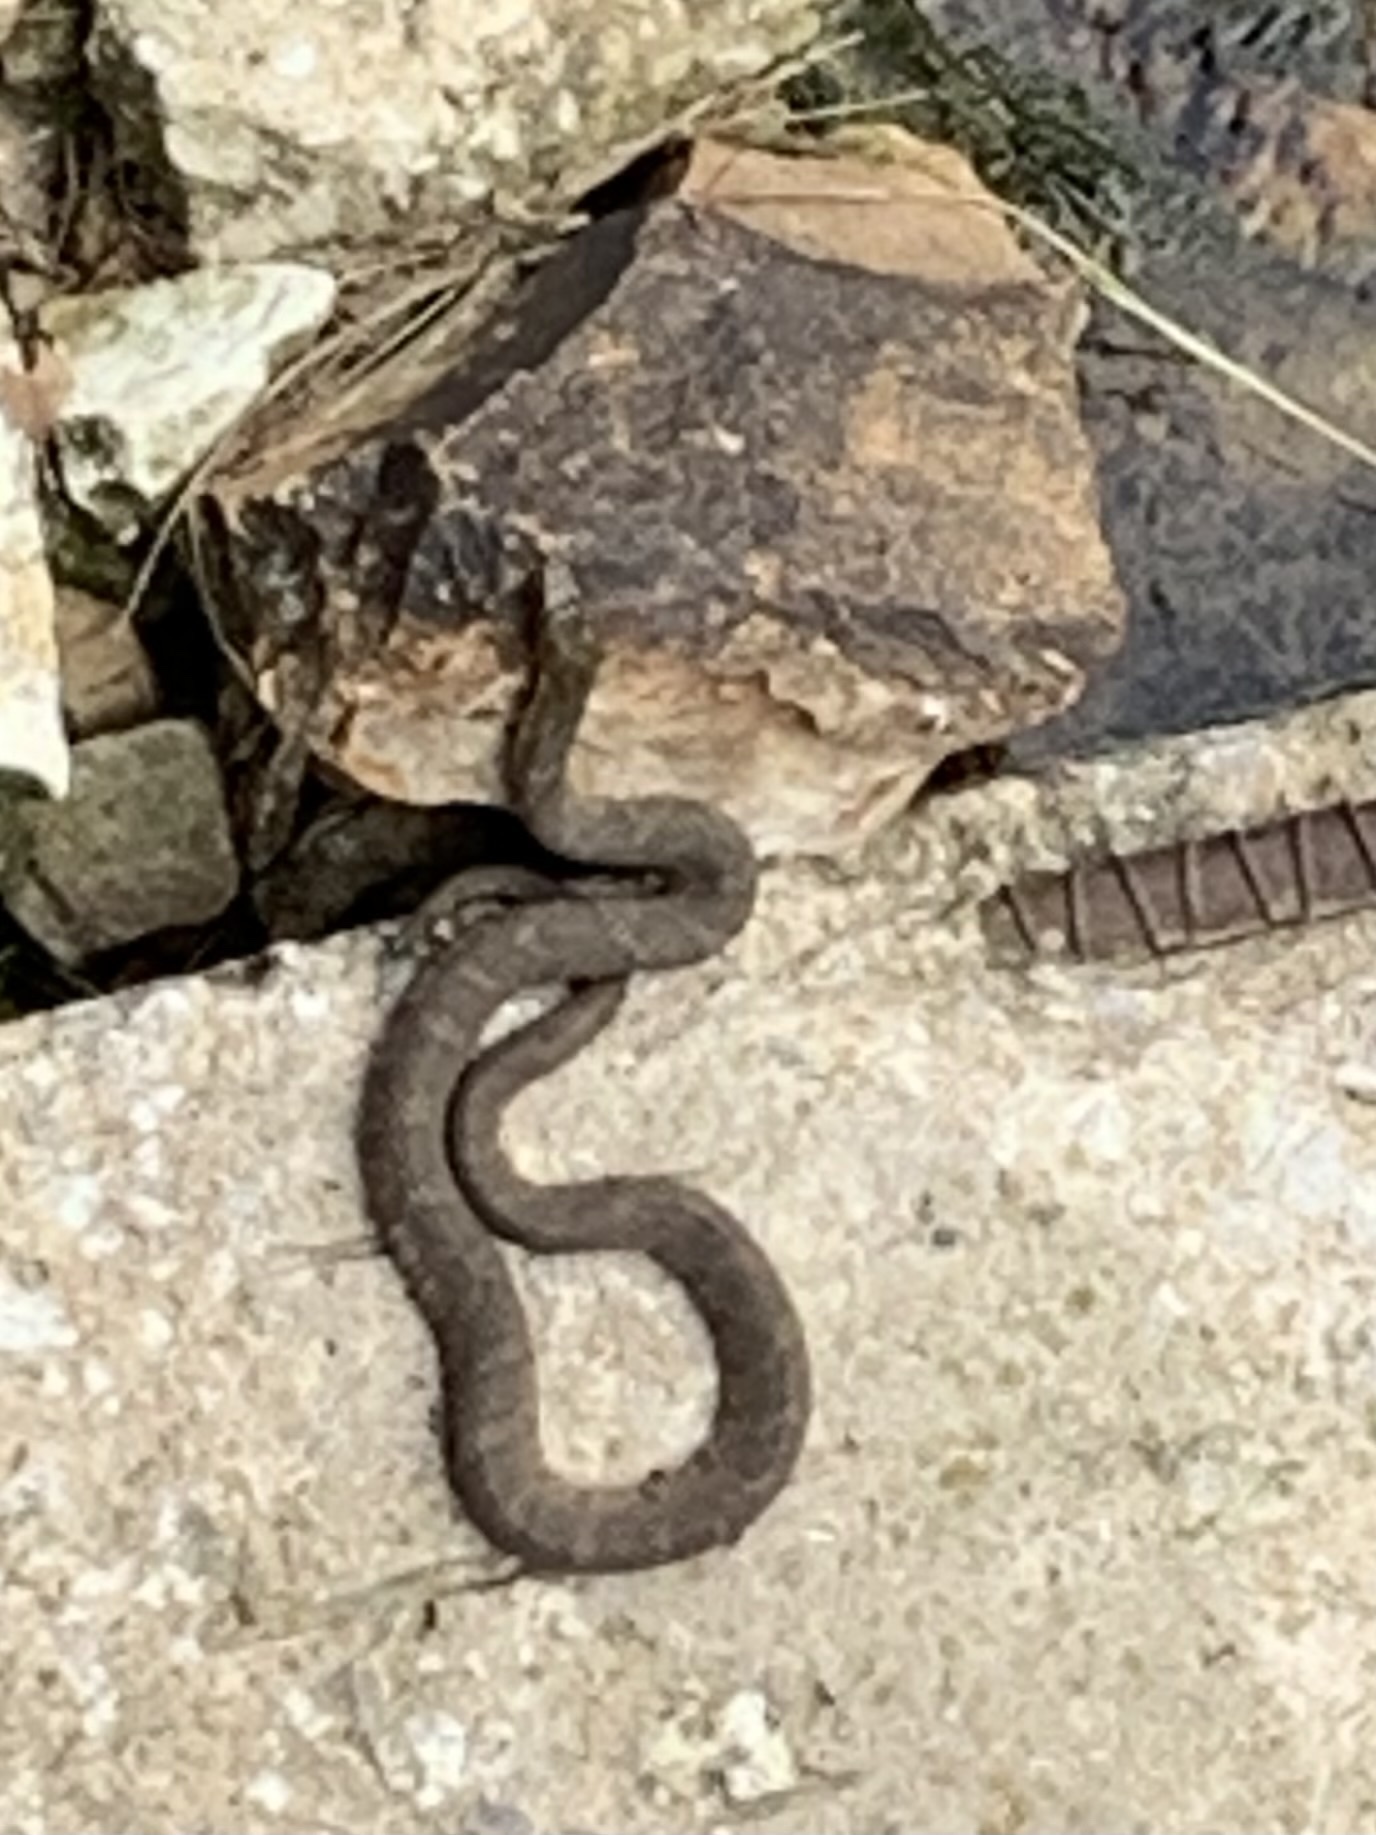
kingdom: Animalia
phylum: Chordata
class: Squamata
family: Colubridae
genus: Nerodia
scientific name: Nerodia sipedon
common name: Northern water snake
